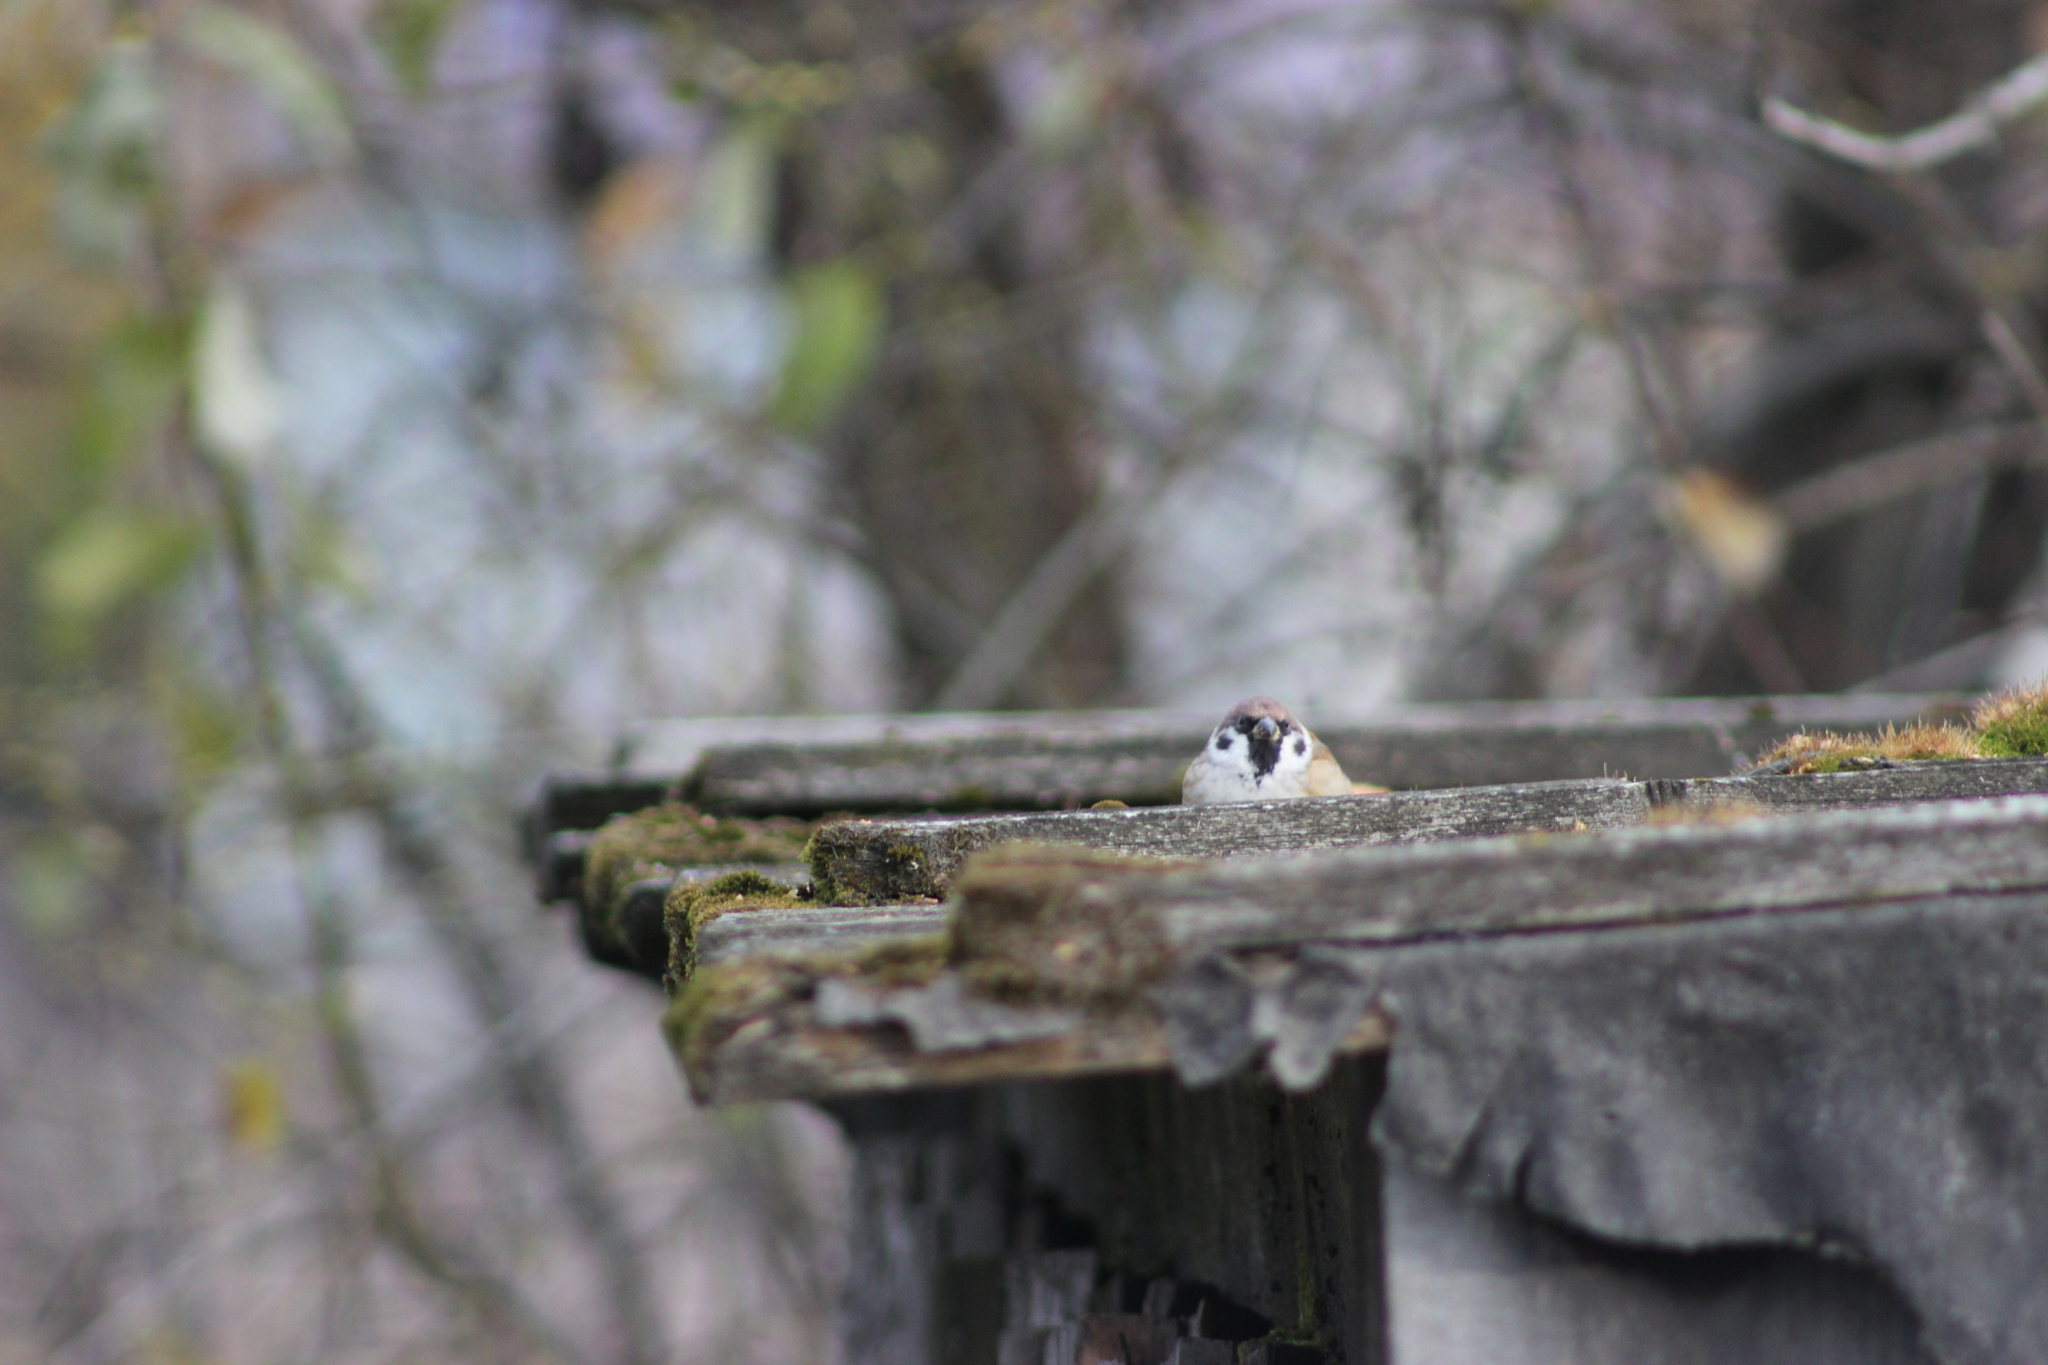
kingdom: Animalia
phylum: Chordata
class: Aves
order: Passeriformes
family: Passeridae
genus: Passer
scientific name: Passer montanus
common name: Eurasian tree sparrow
